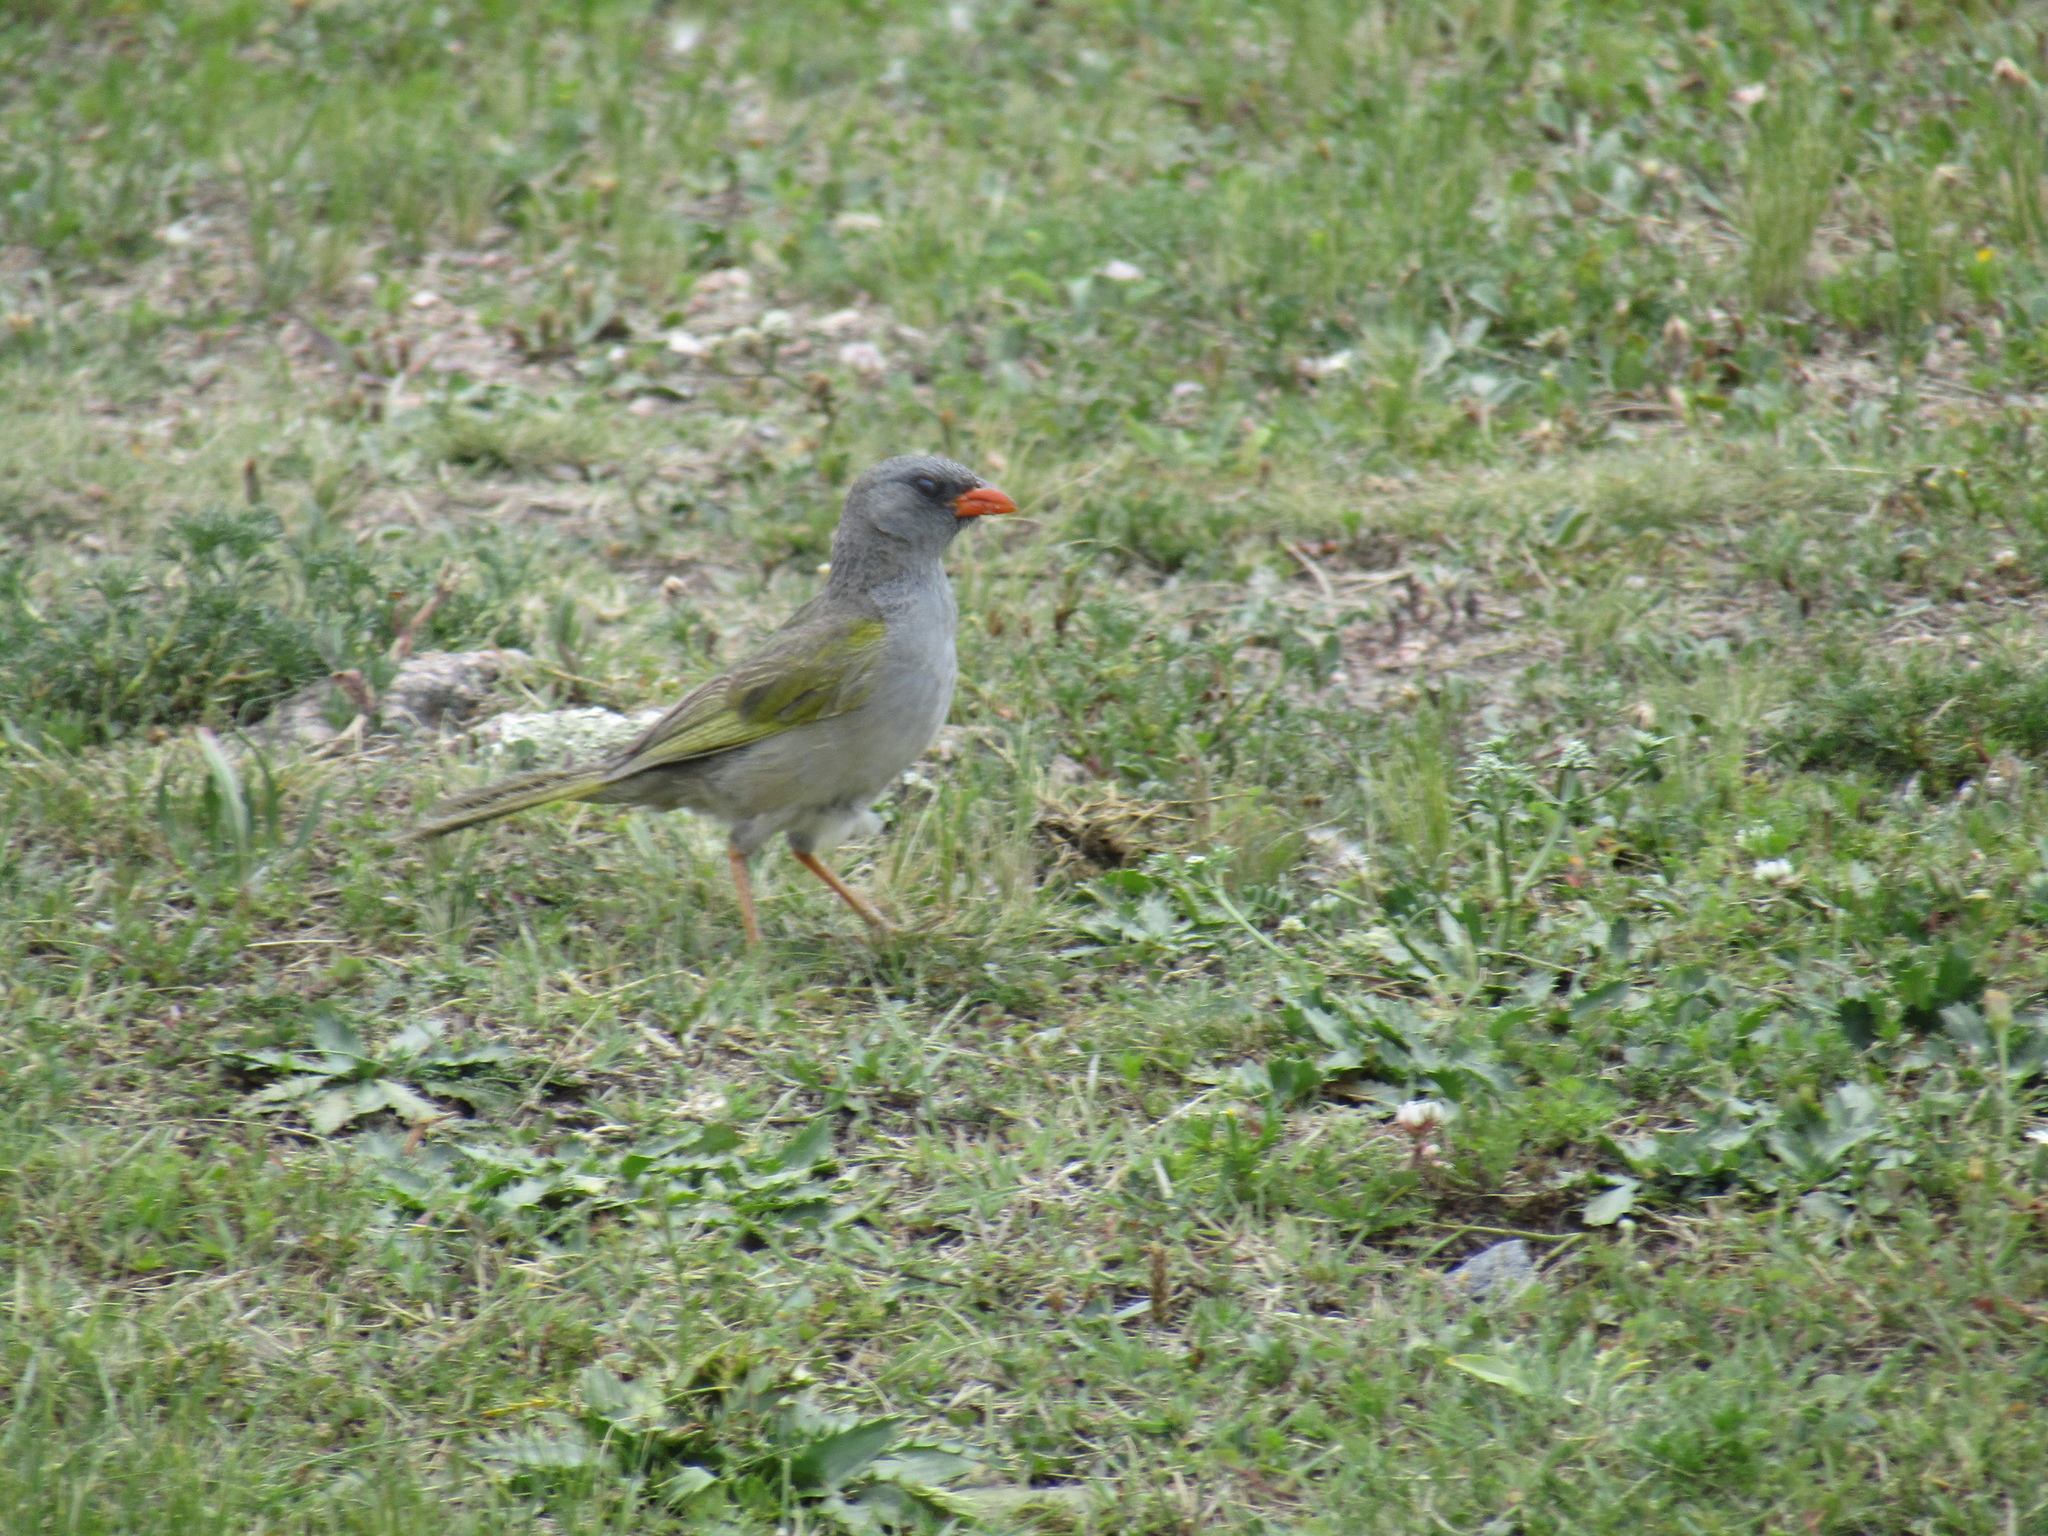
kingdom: Animalia
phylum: Chordata
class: Aves
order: Passeriformes
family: Thraupidae
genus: Embernagra
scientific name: Embernagra platensis
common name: Pampa finch
